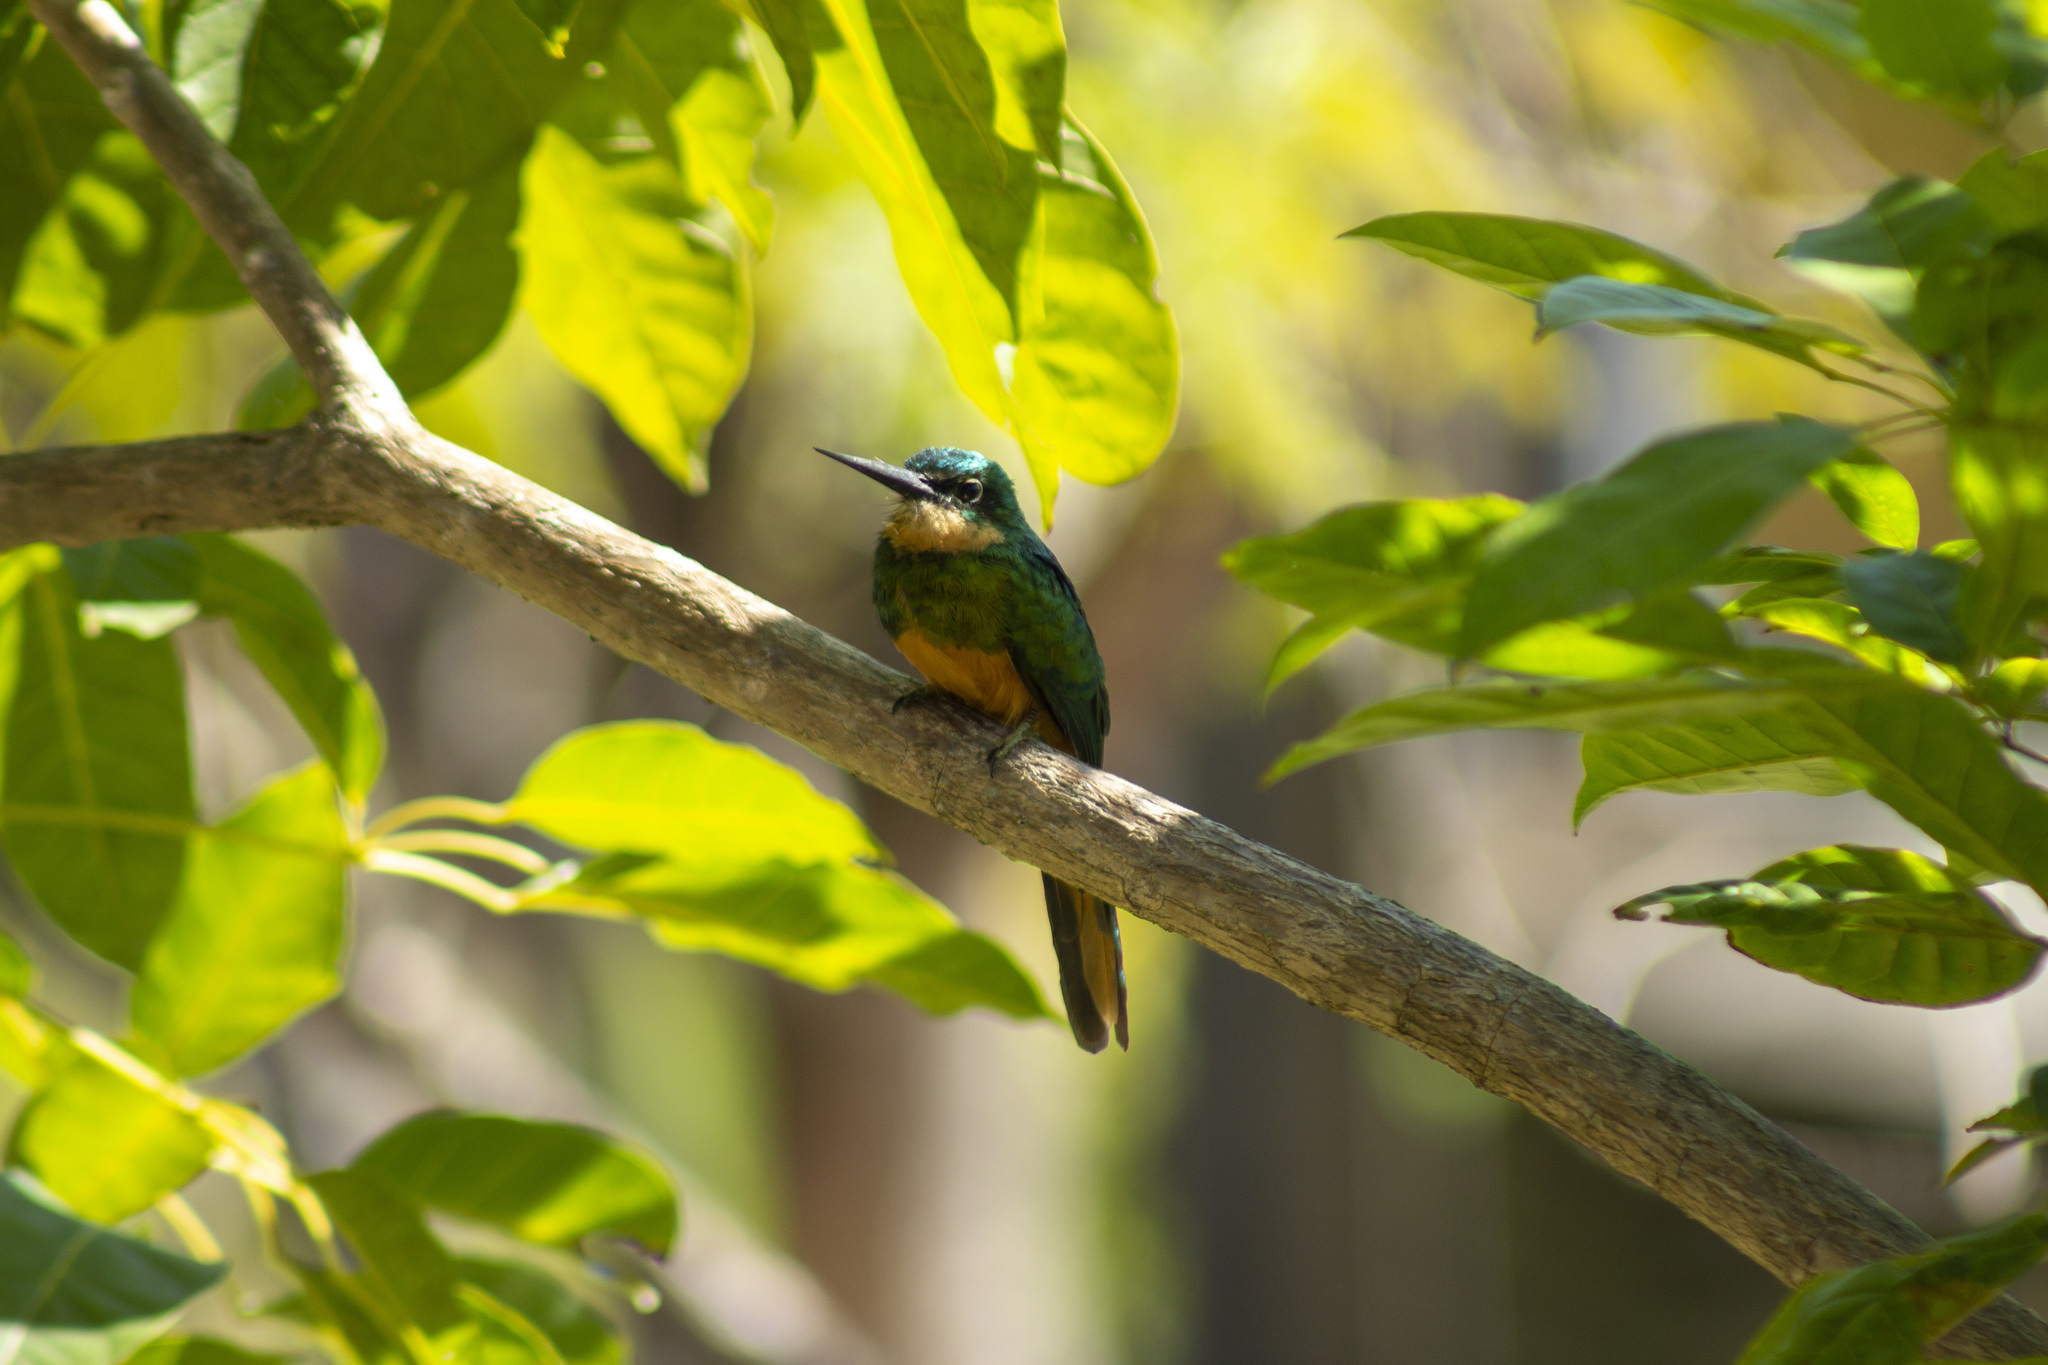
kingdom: Animalia
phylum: Chordata
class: Aves
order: Piciformes
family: Galbulidae
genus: Galbula
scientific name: Galbula ruficauda
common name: Rufous-tailed jacamar
